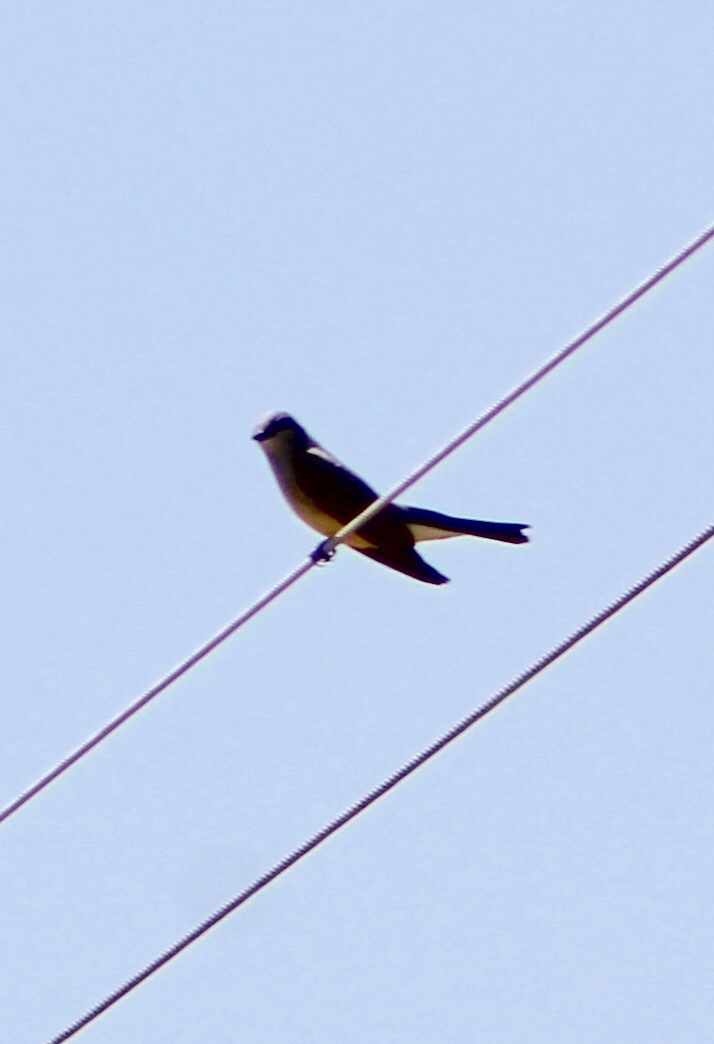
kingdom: Animalia
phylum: Chordata
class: Aves
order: Passeriformes
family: Tyrannidae
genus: Tyrannus
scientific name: Tyrannus verticalis
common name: Western kingbird
